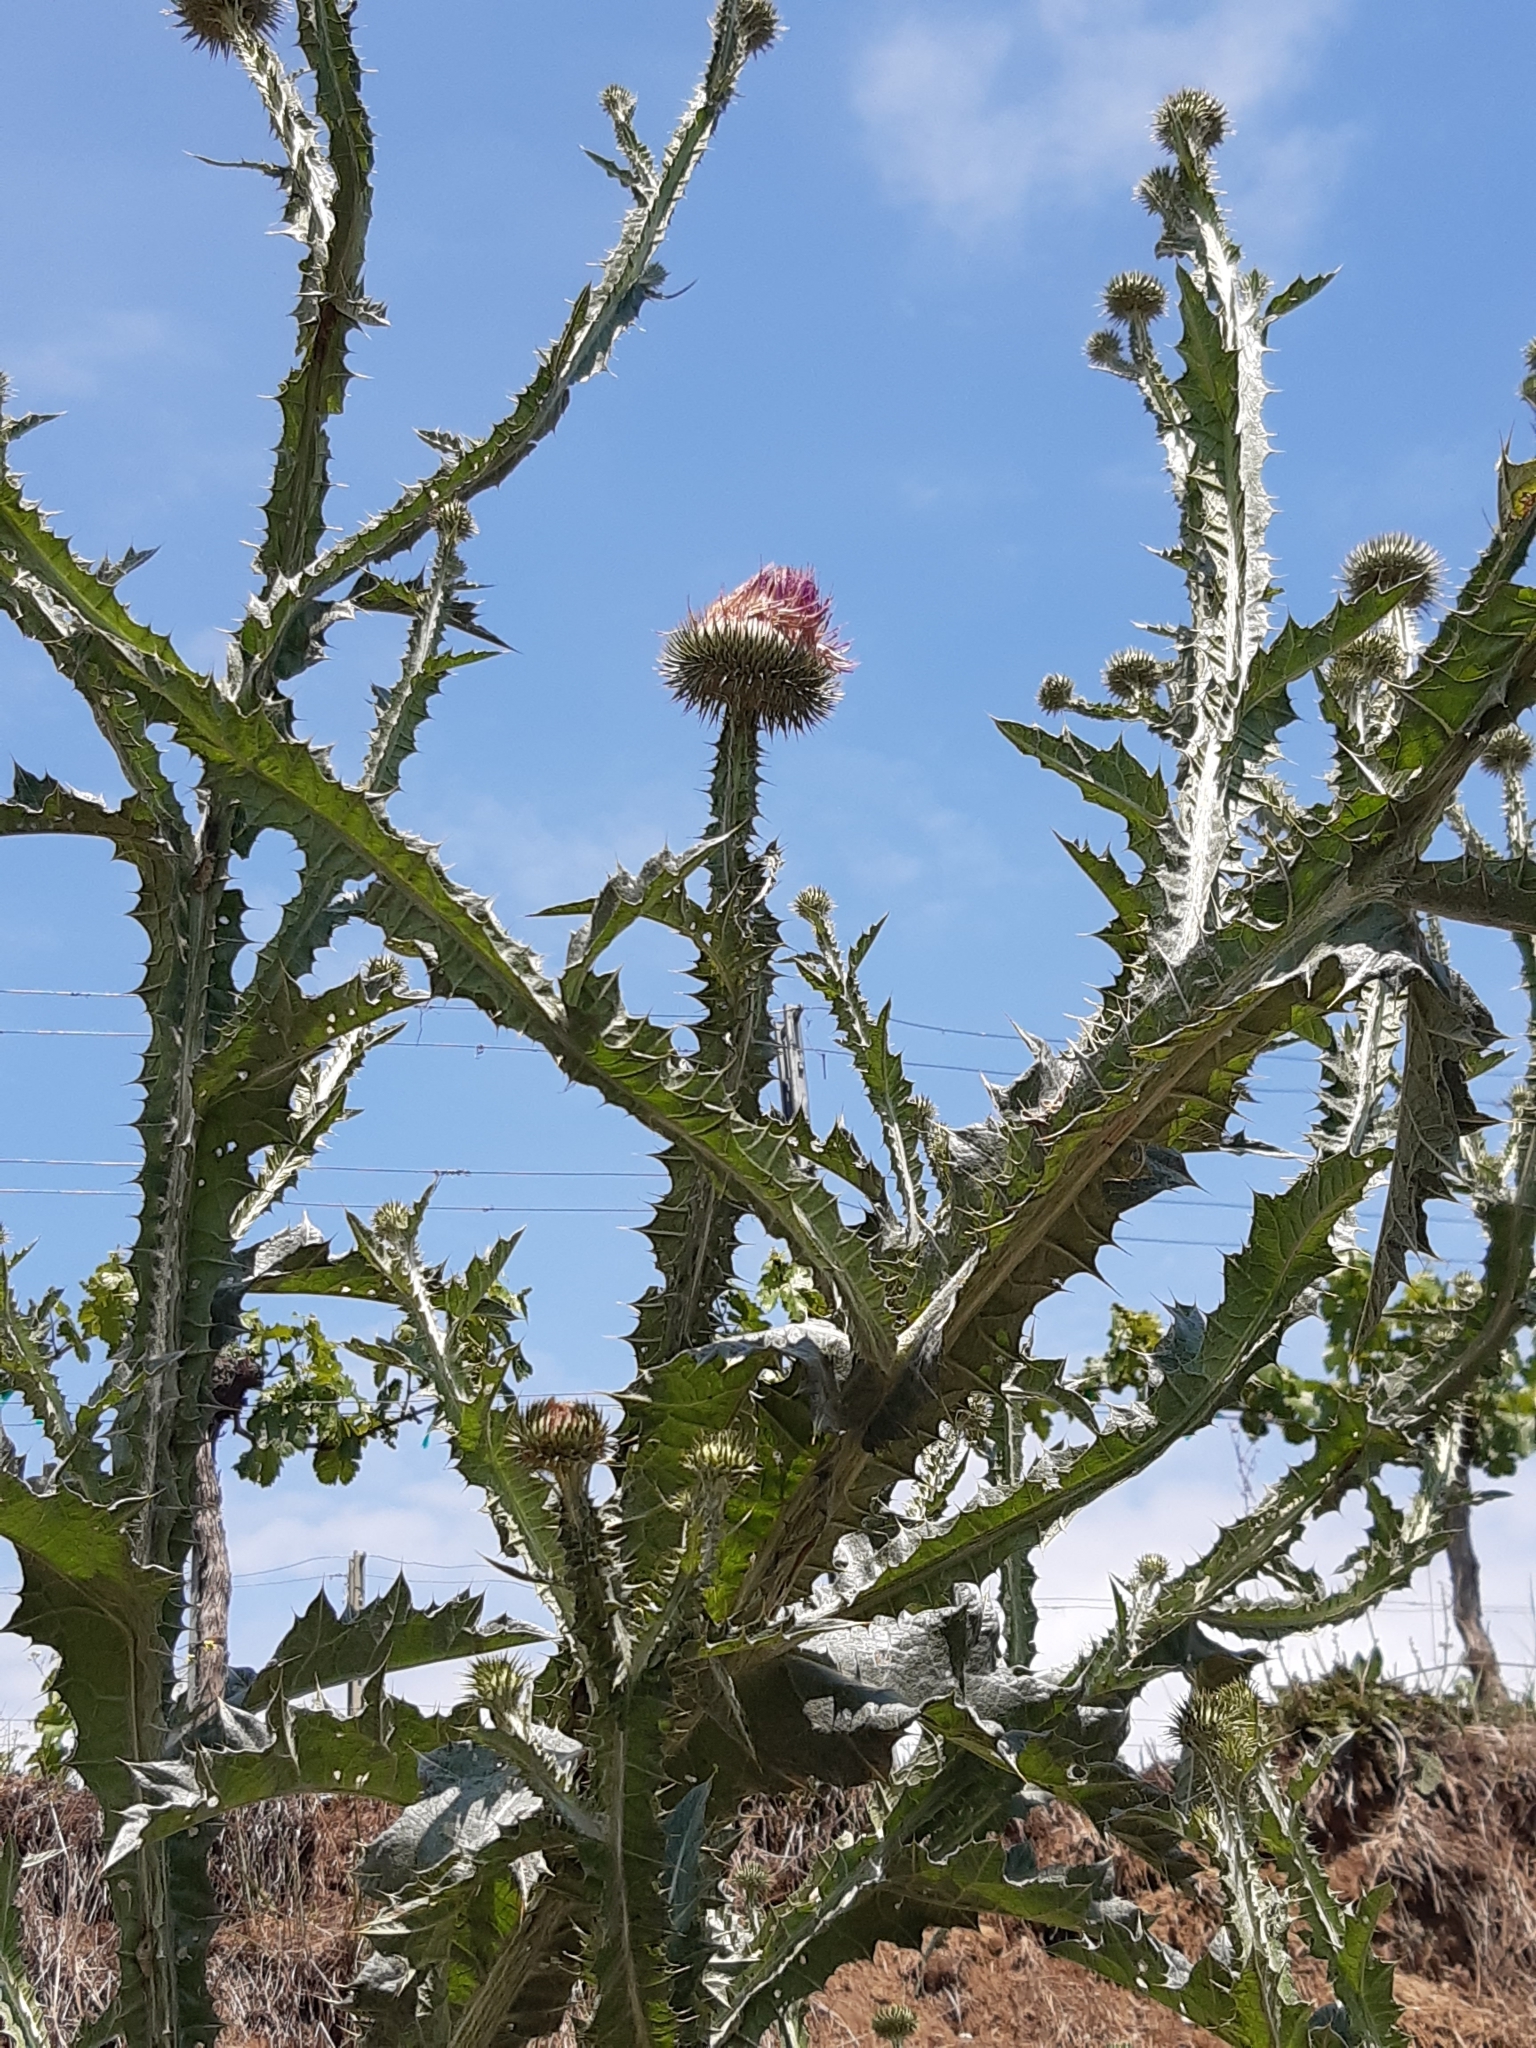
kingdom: Plantae
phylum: Tracheophyta
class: Magnoliopsida
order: Asterales
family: Asteraceae
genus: Onopordum
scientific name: Onopordum acanthium
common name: Scotch thistle
